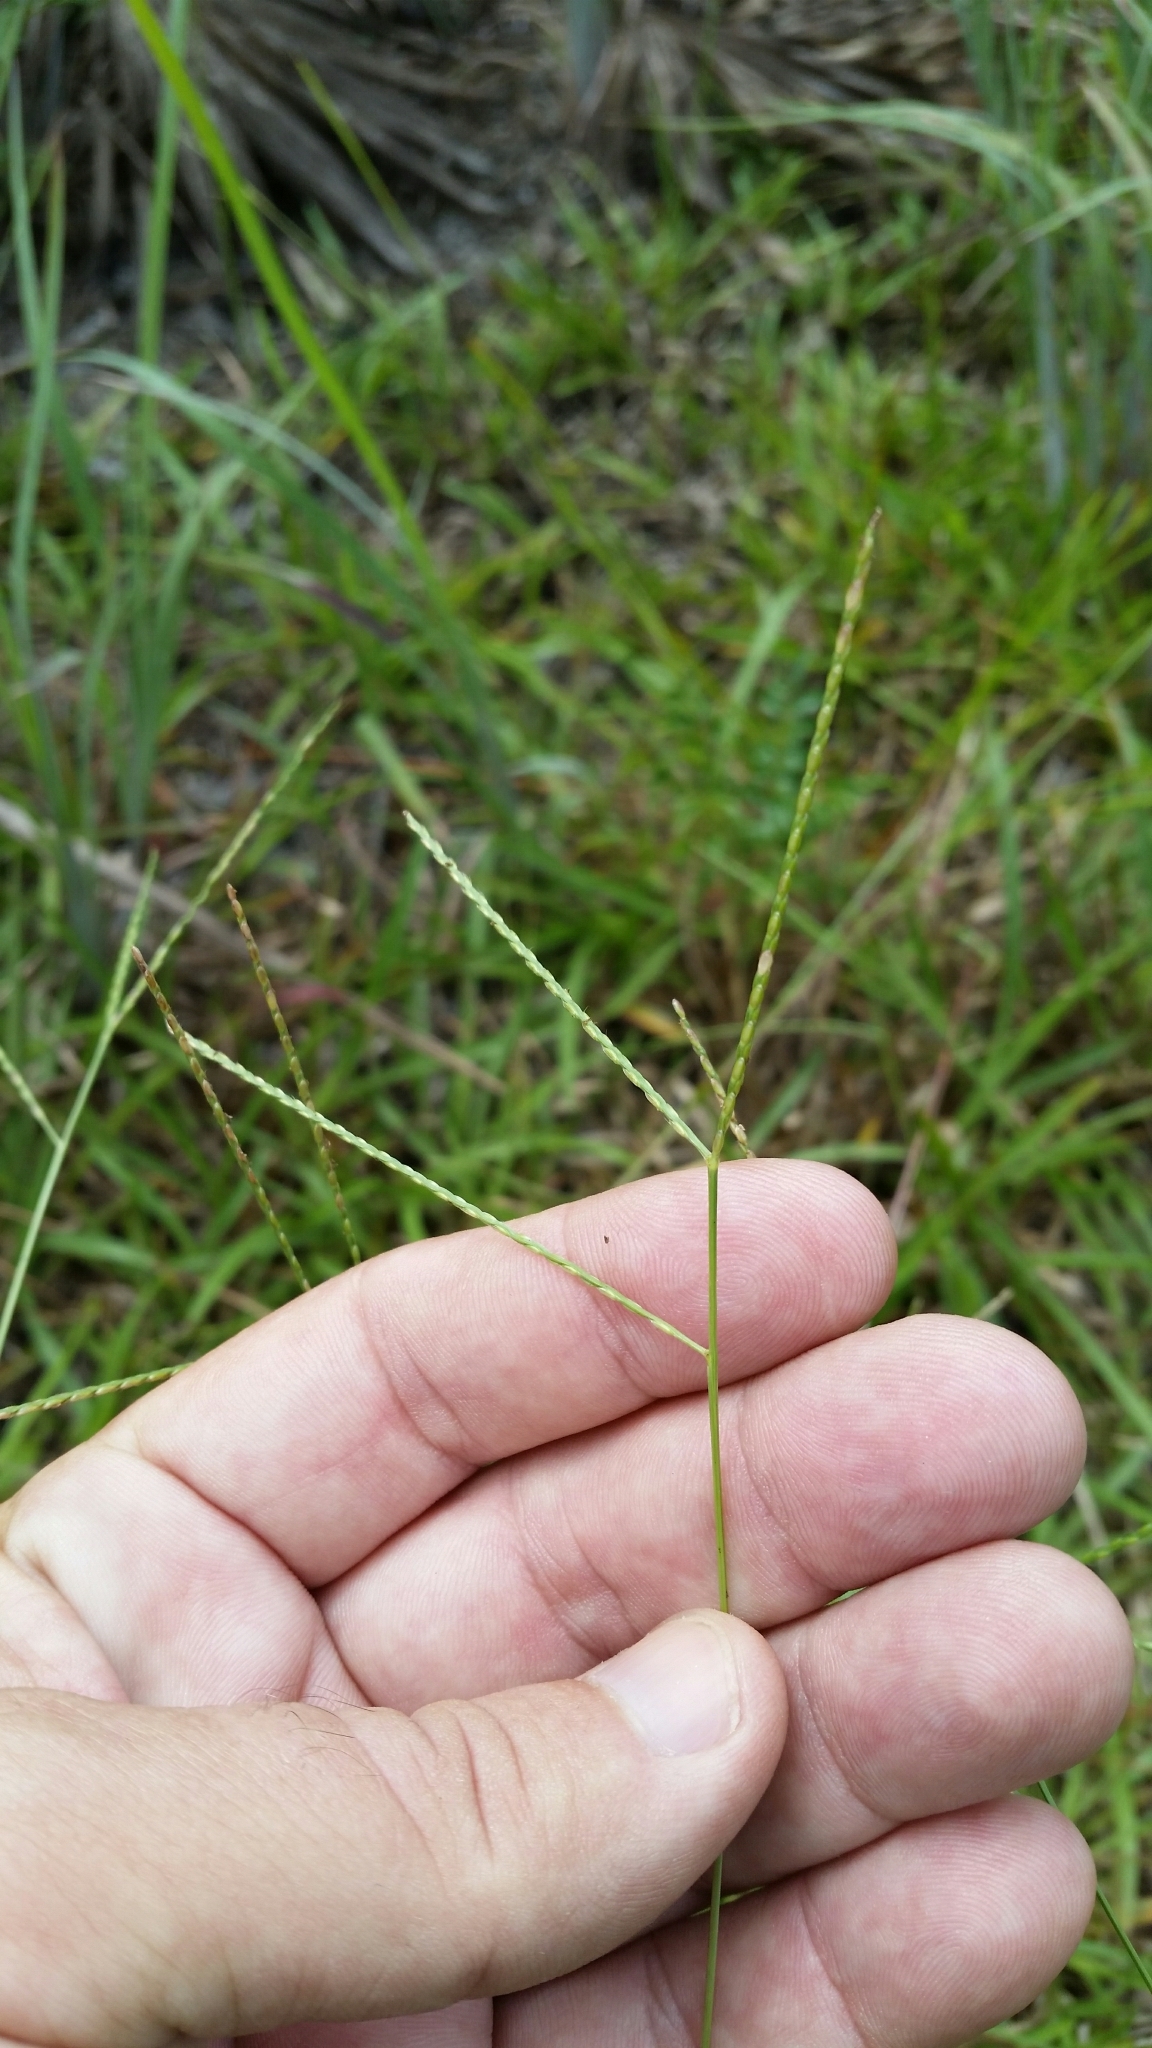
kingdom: Plantae
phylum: Tracheophyta
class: Liliopsida
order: Poales
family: Poaceae
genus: Axonopus
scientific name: Axonopus fissifolius
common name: Common carpetgrass
